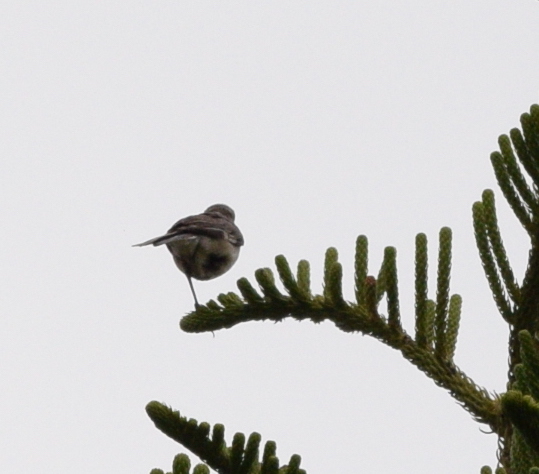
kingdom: Animalia
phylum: Chordata
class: Aves
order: Passeriformes
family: Mimidae
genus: Mimus
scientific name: Mimus polyglottos
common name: Northern mockingbird
